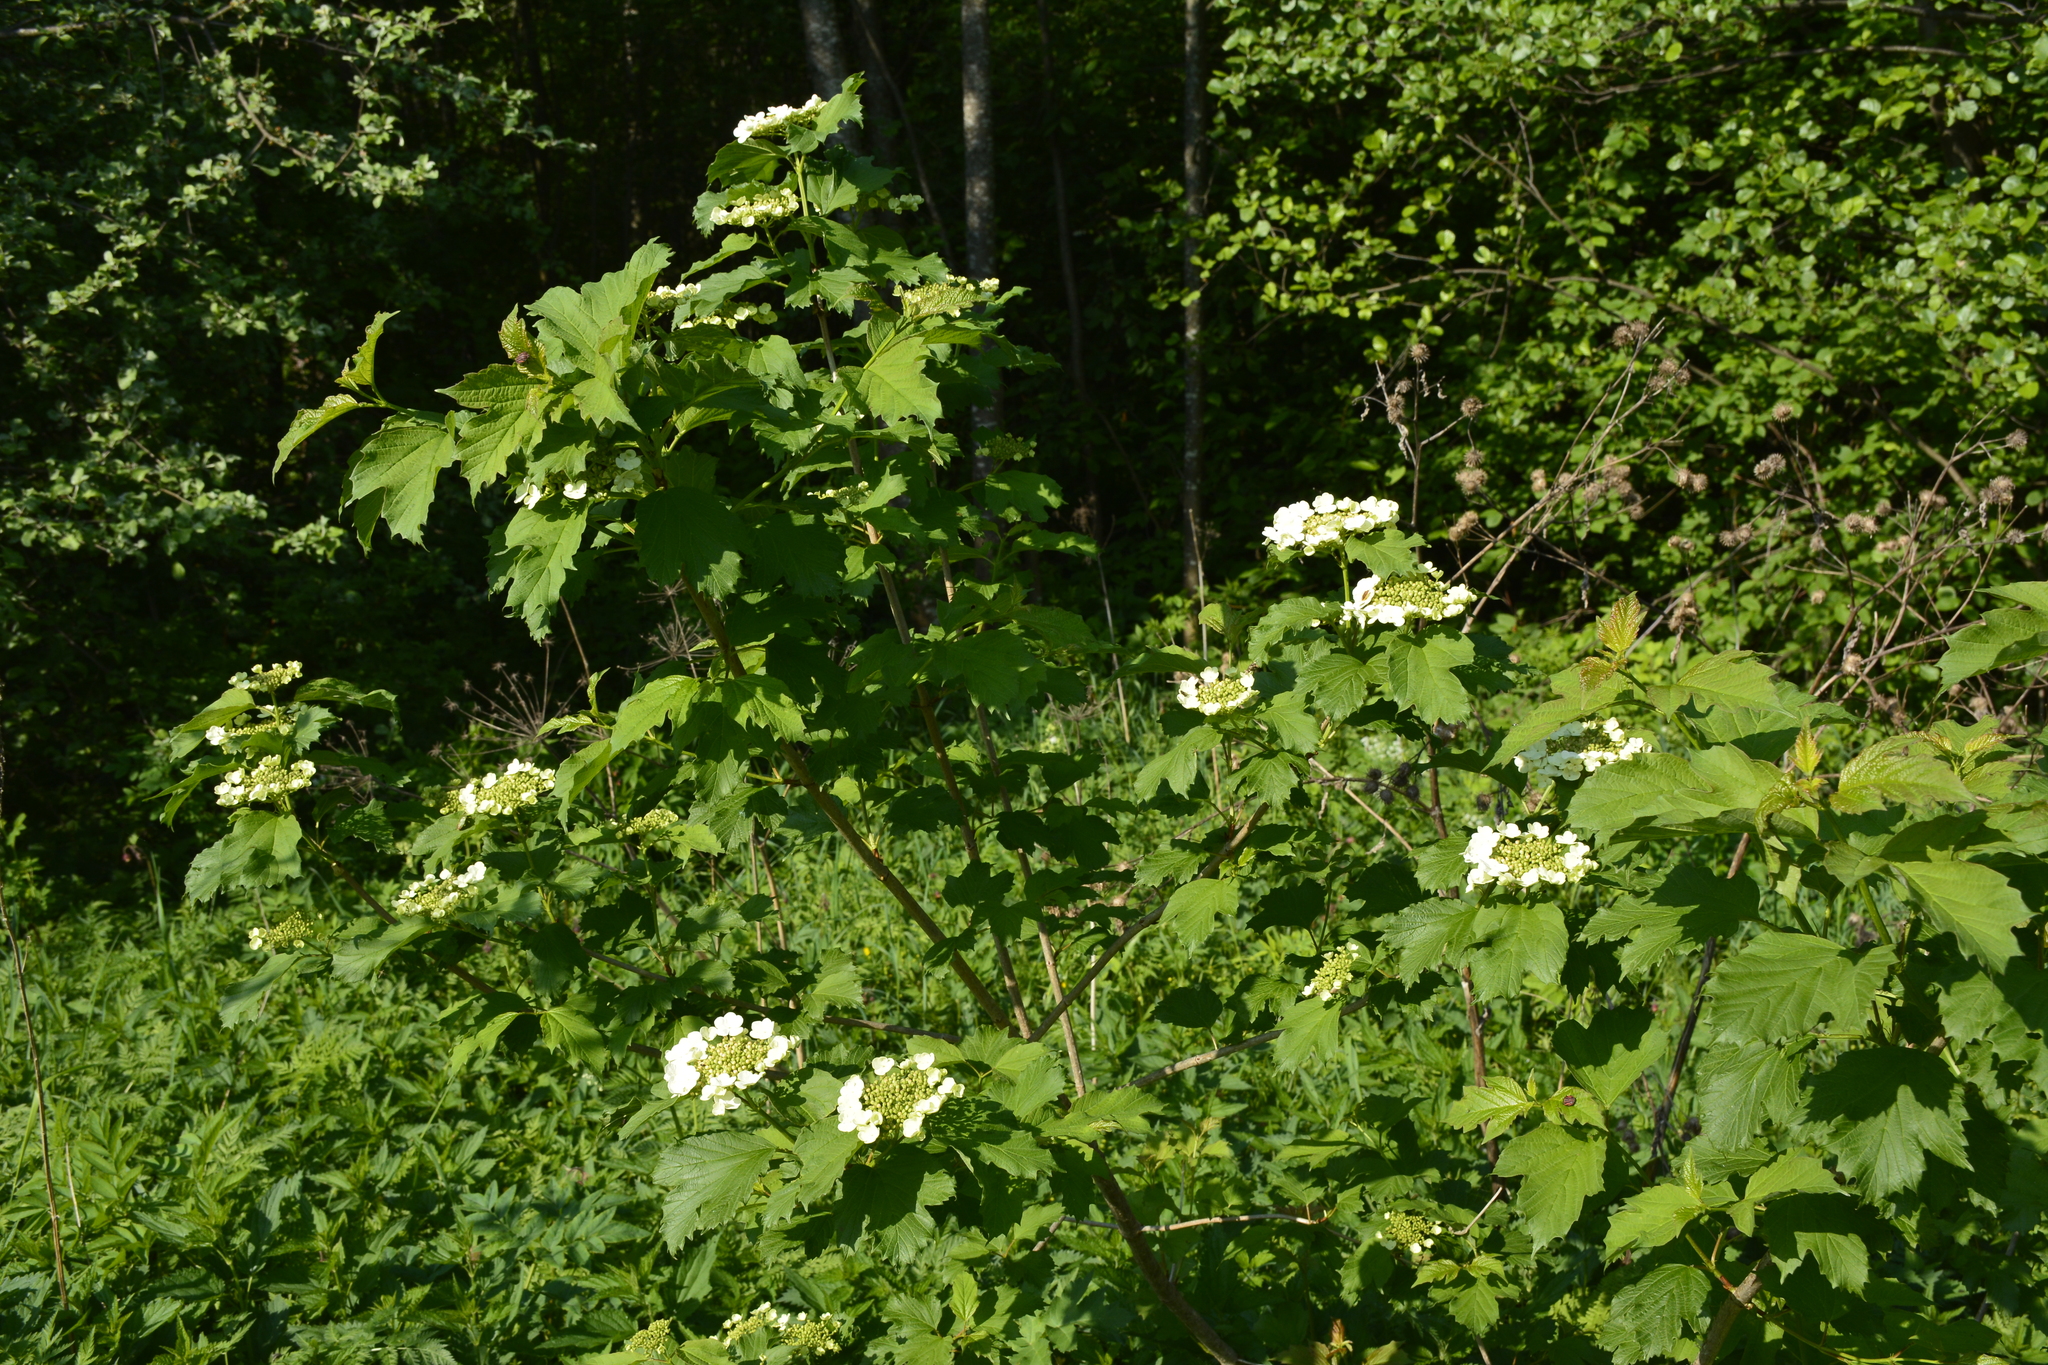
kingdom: Plantae
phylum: Tracheophyta
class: Magnoliopsida
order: Dipsacales
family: Viburnaceae
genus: Viburnum
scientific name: Viburnum opulus
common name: Guelder-rose
